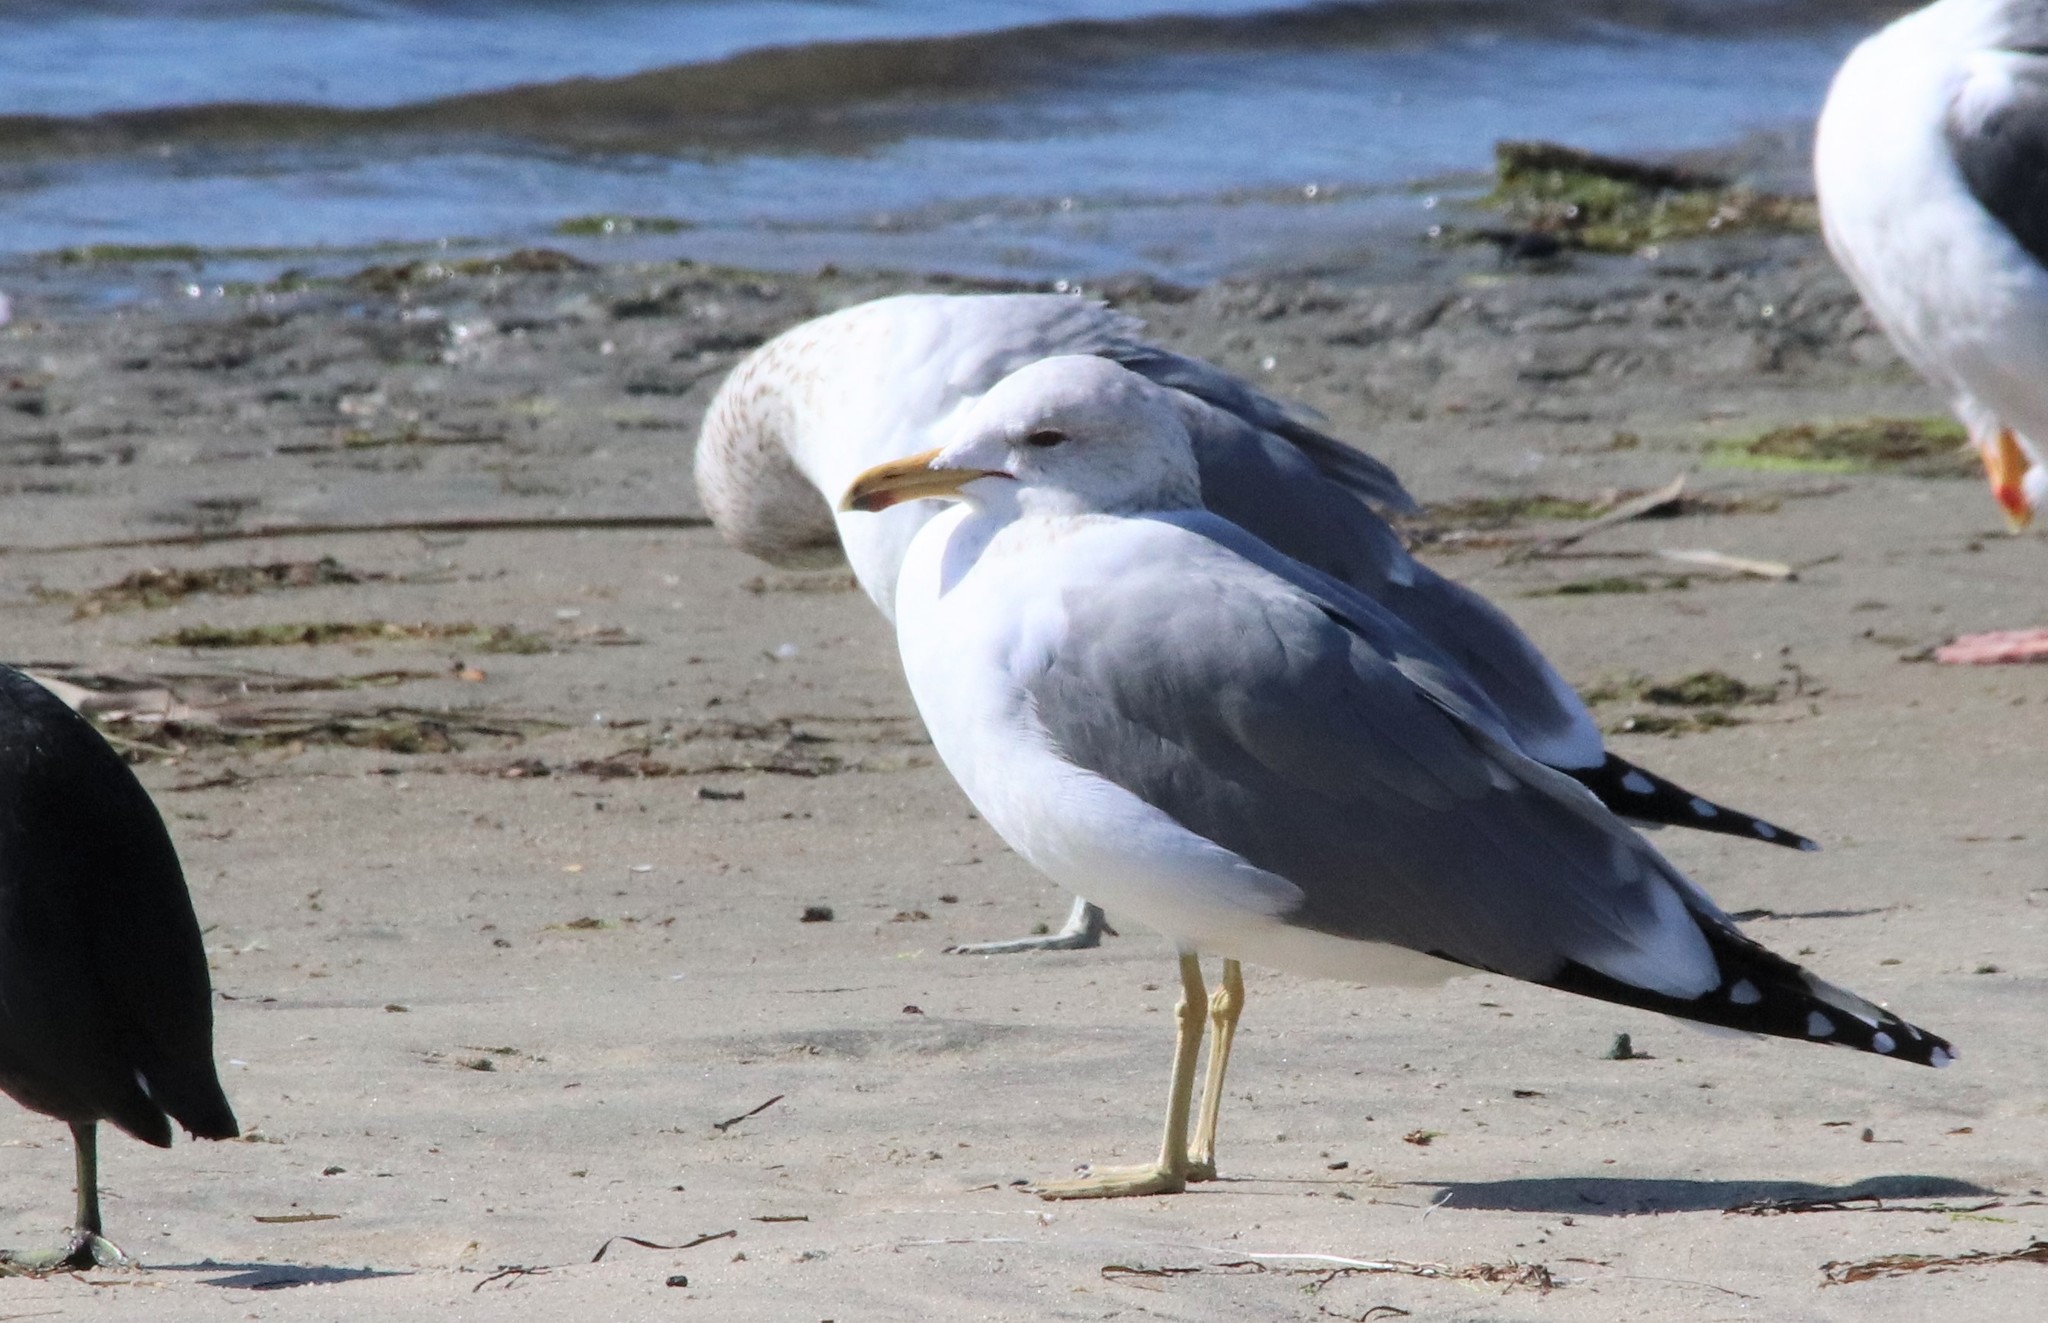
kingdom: Animalia
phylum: Chordata
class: Aves
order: Charadriiformes
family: Laridae
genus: Larus
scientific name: Larus californicus
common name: California gull
